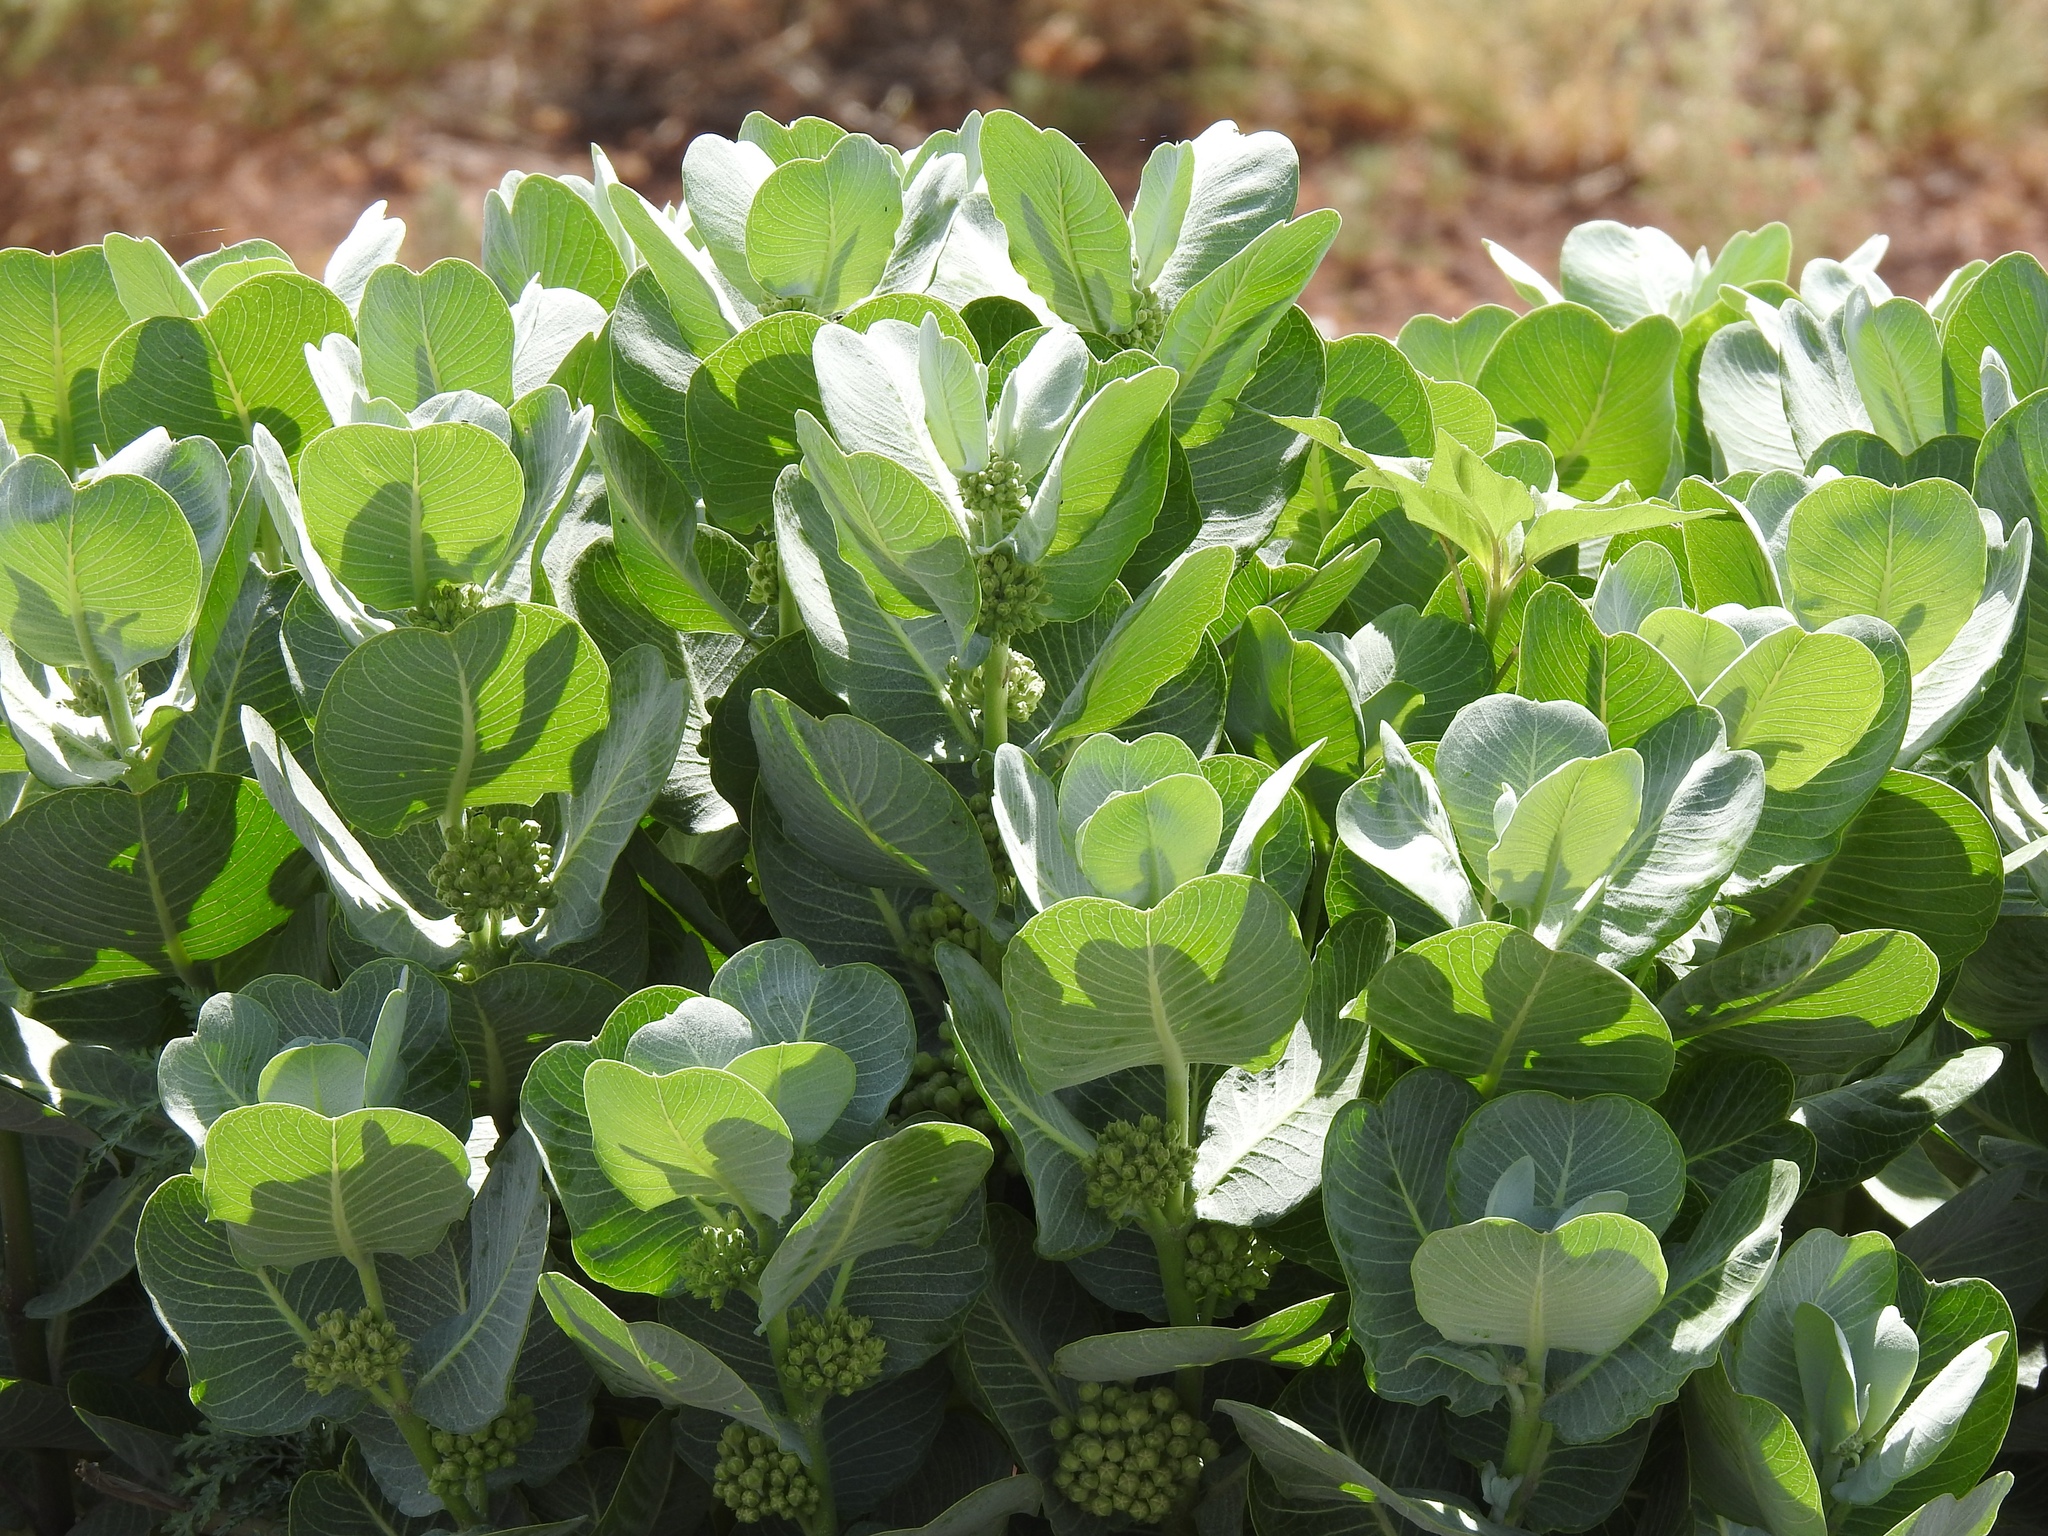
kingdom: Plantae
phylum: Tracheophyta
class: Magnoliopsida
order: Gentianales
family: Apocynaceae
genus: Asclepias
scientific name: Asclepias latifolia
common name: Broadleaf milkweed
